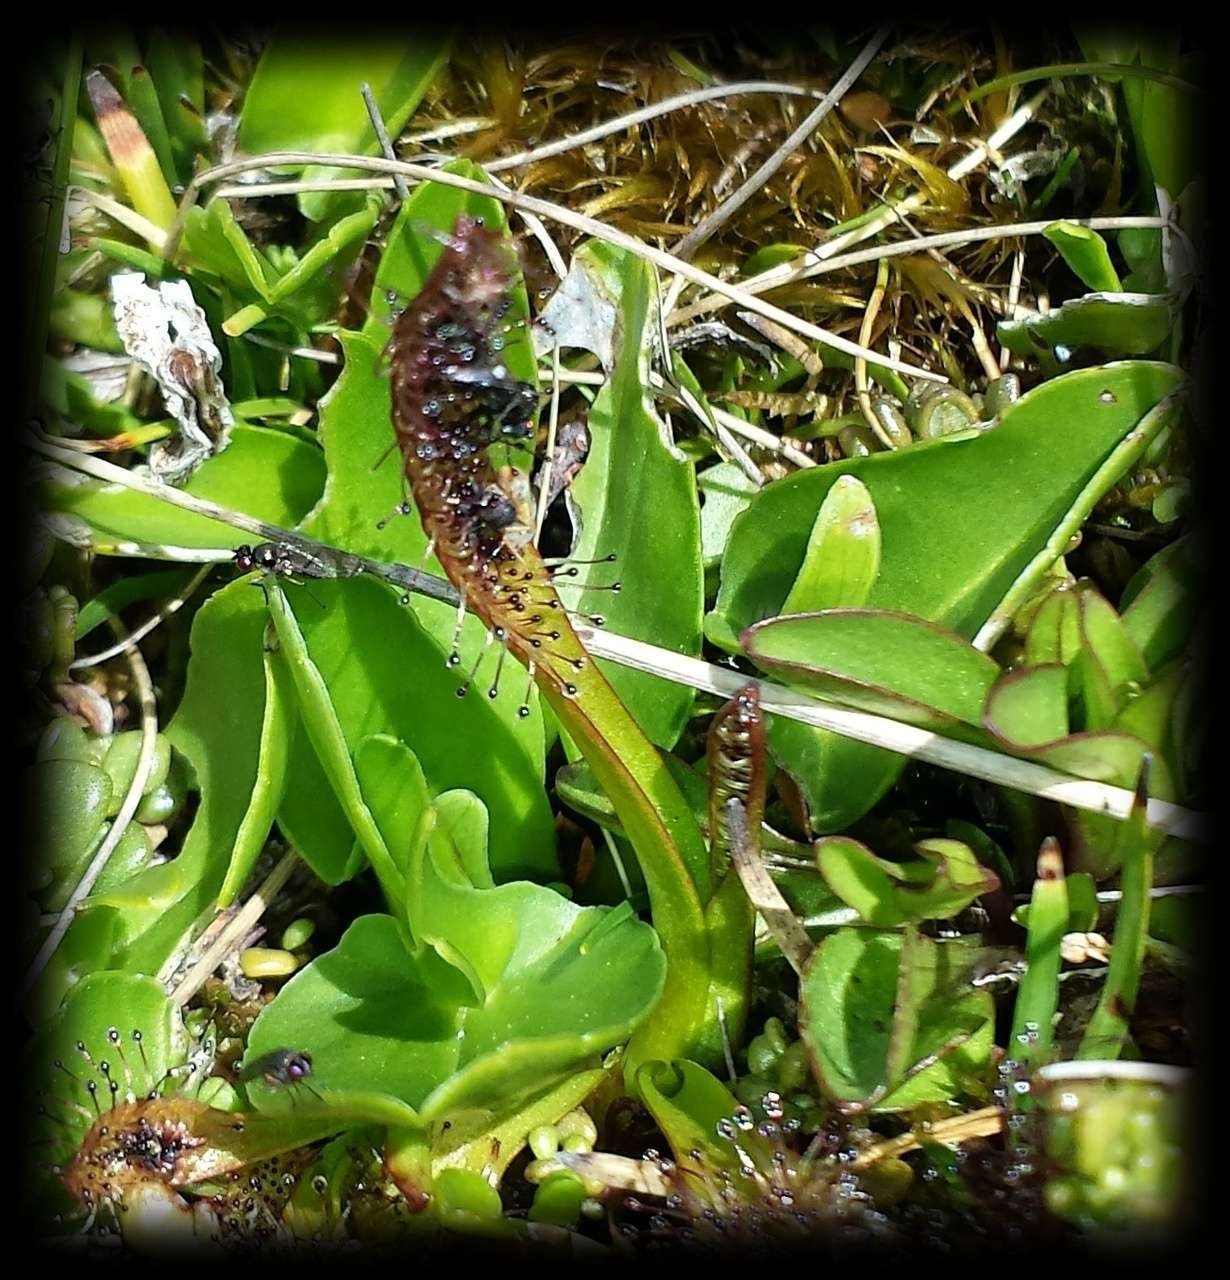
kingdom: Plantae
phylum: Tracheophyta
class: Magnoliopsida
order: Caryophyllales
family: Droseraceae
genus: Drosera
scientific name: Drosera arcturi
